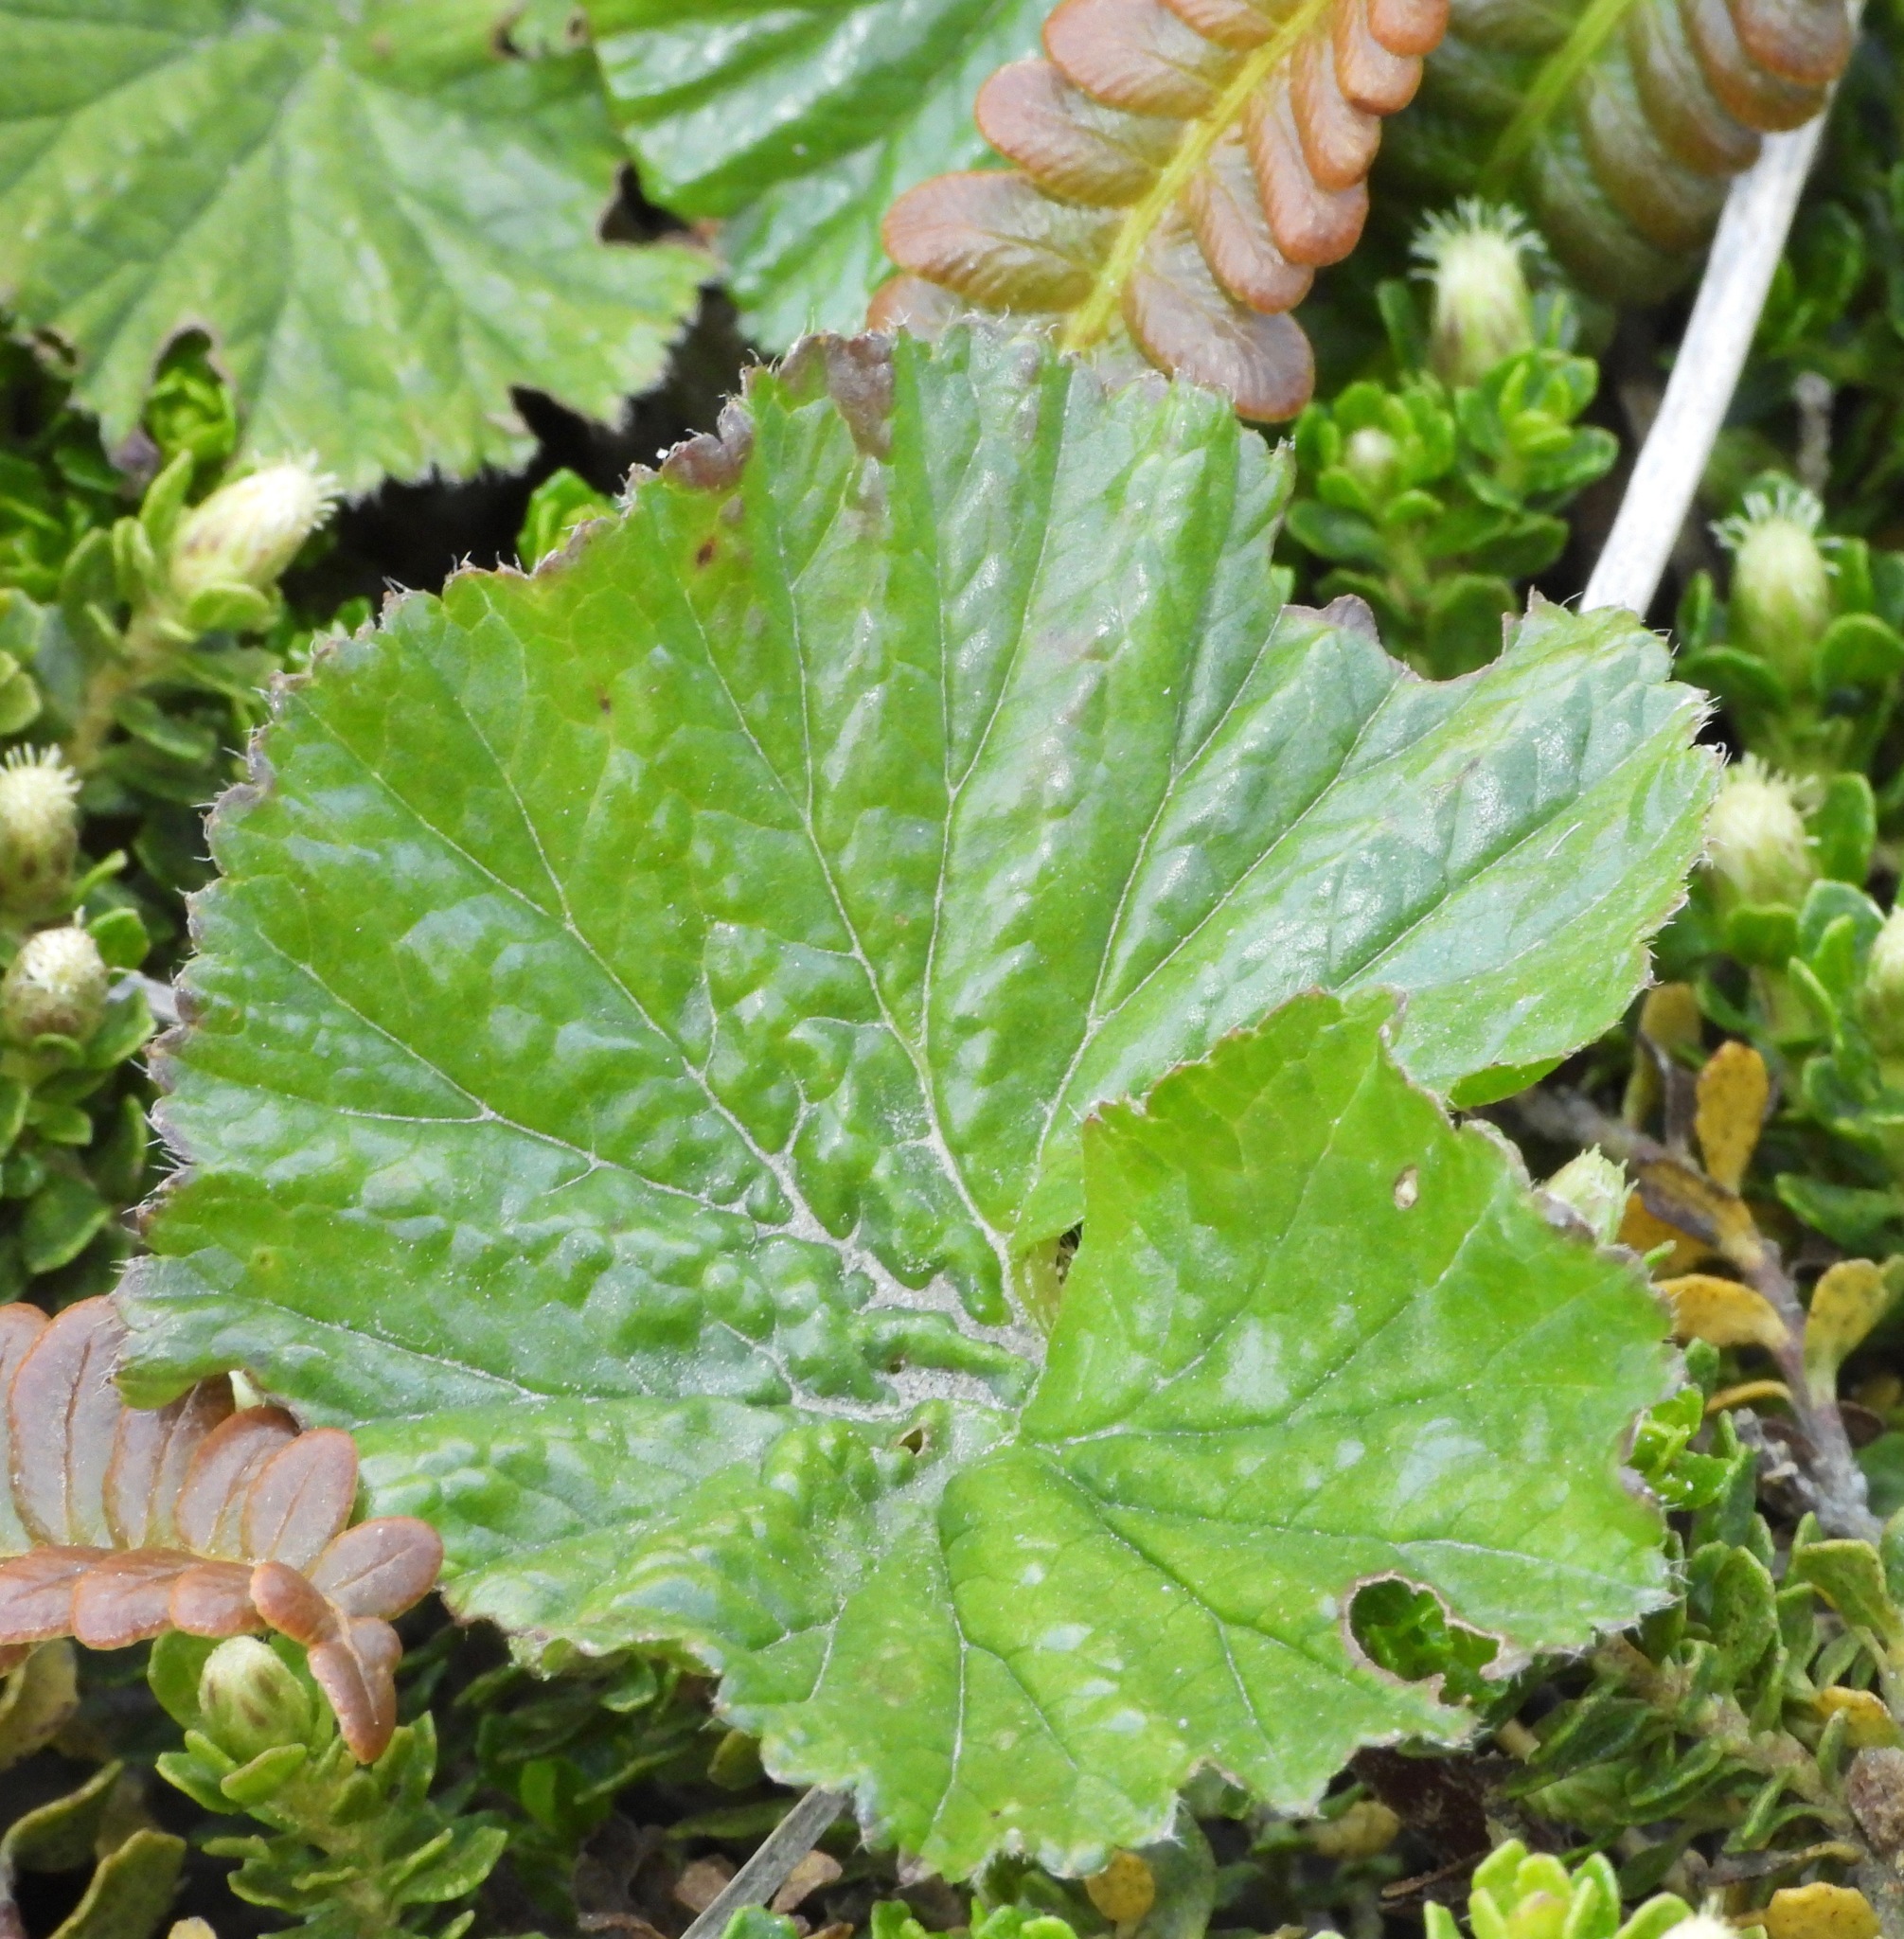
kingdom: Plantae
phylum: Tracheophyta
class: Magnoliopsida
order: Gunnerales
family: Gunneraceae
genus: Gunnera
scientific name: Gunnera magellanica
